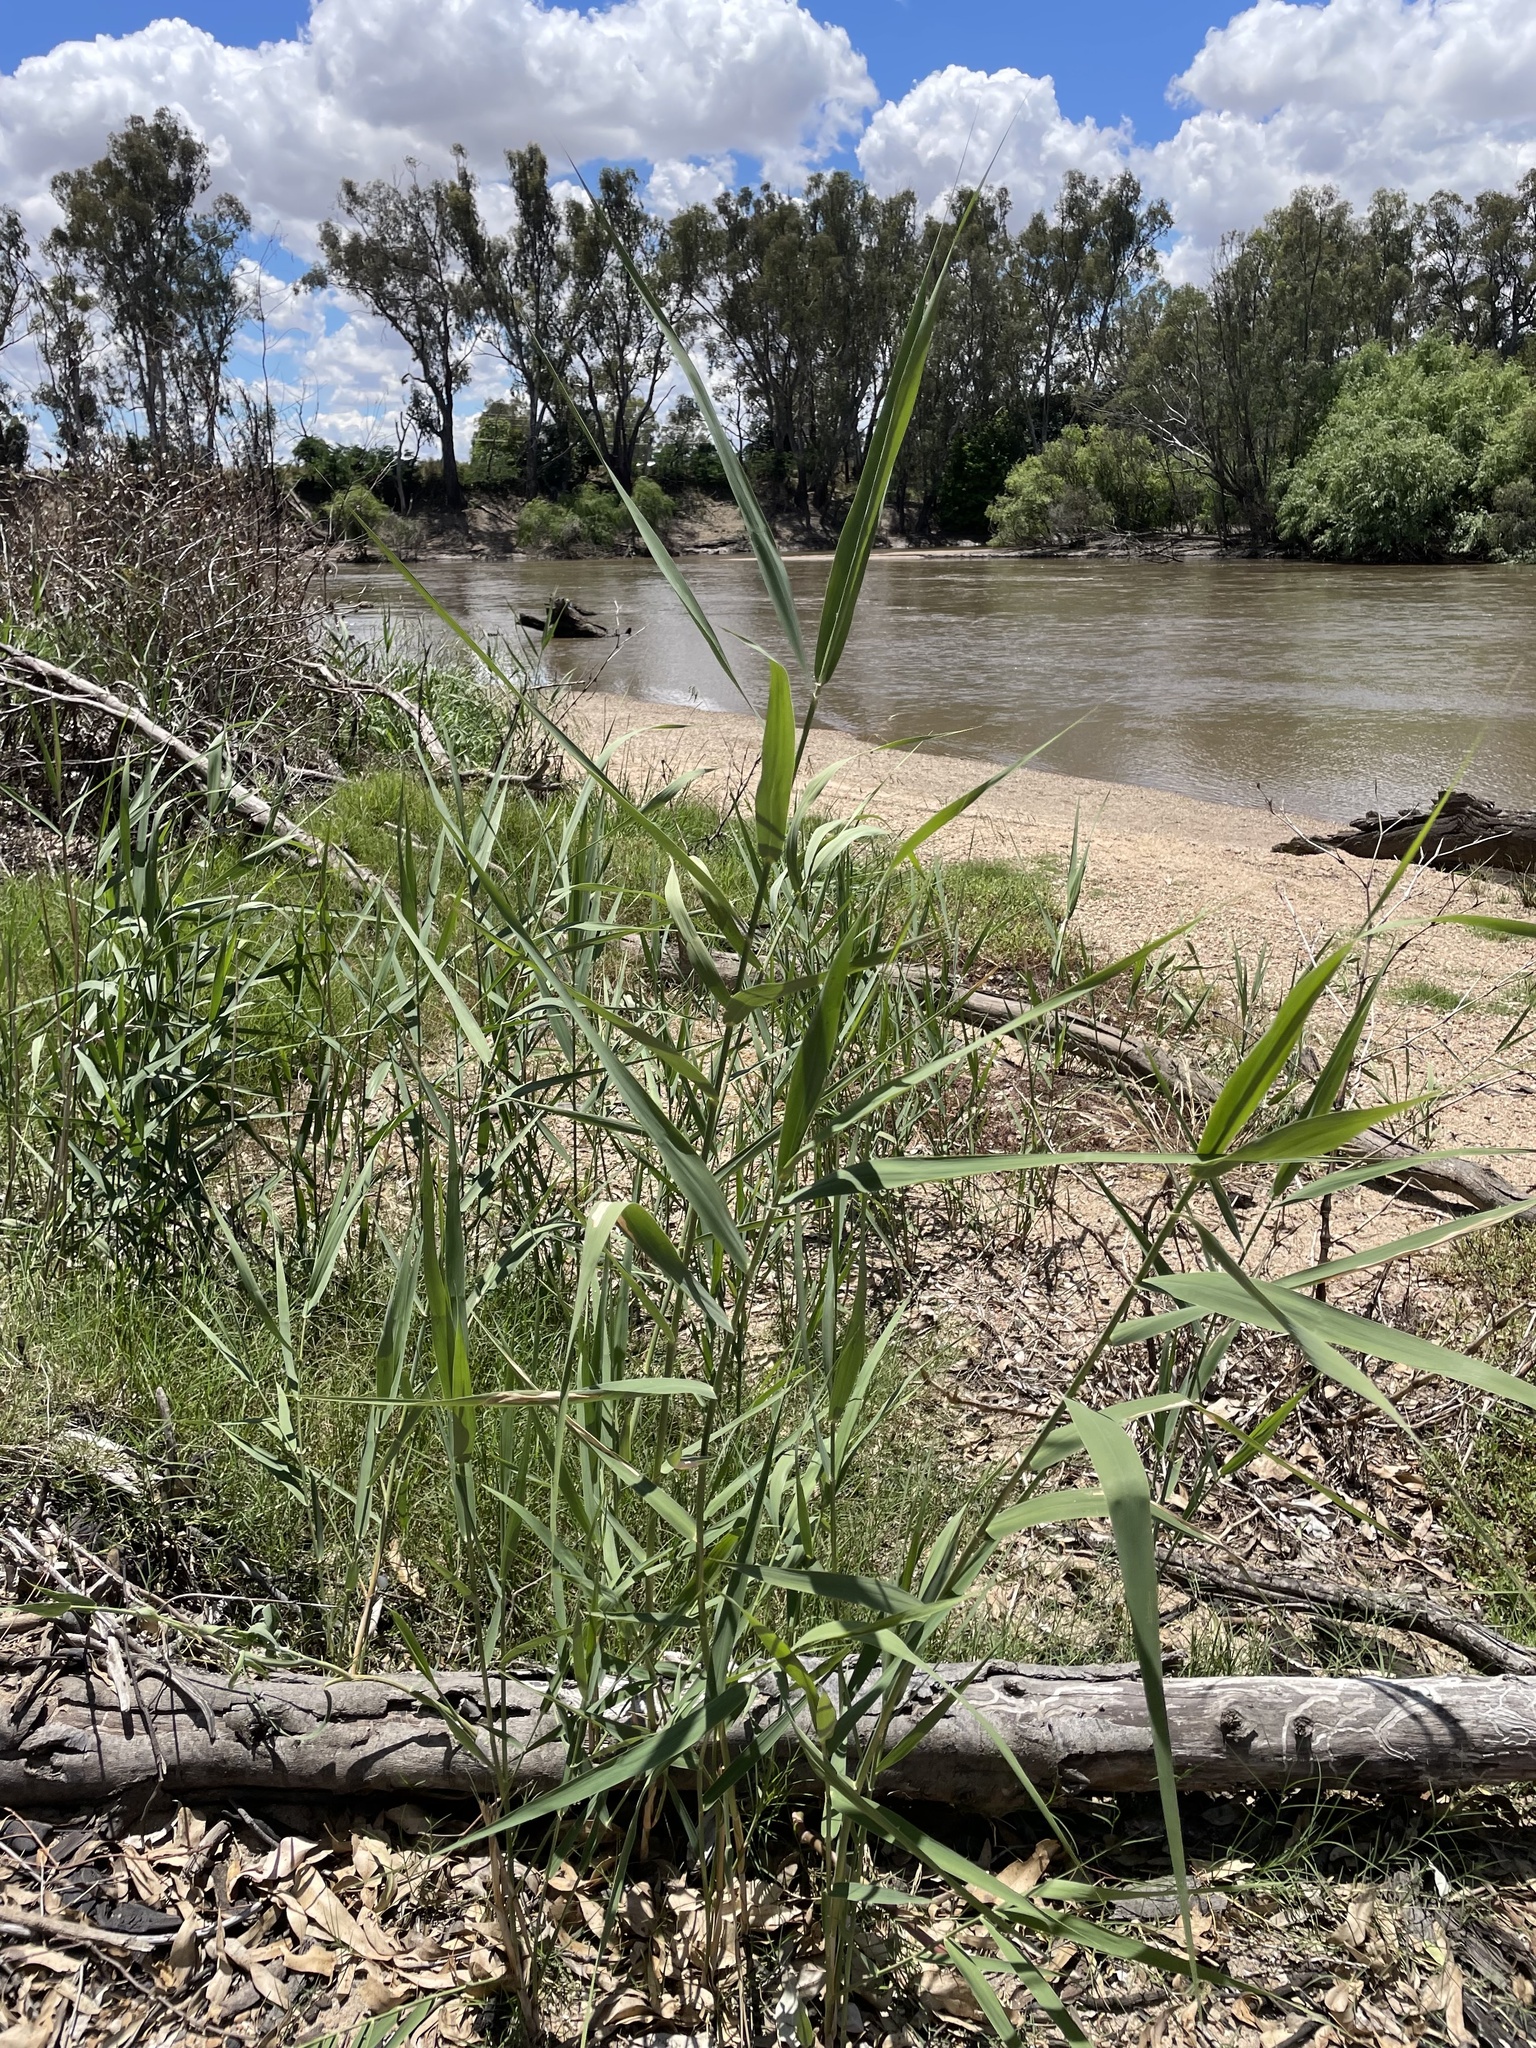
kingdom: Plantae
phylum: Tracheophyta
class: Liliopsida
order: Poales
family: Poaceae
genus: Phragmites
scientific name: Phragmites australis
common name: Common reed
